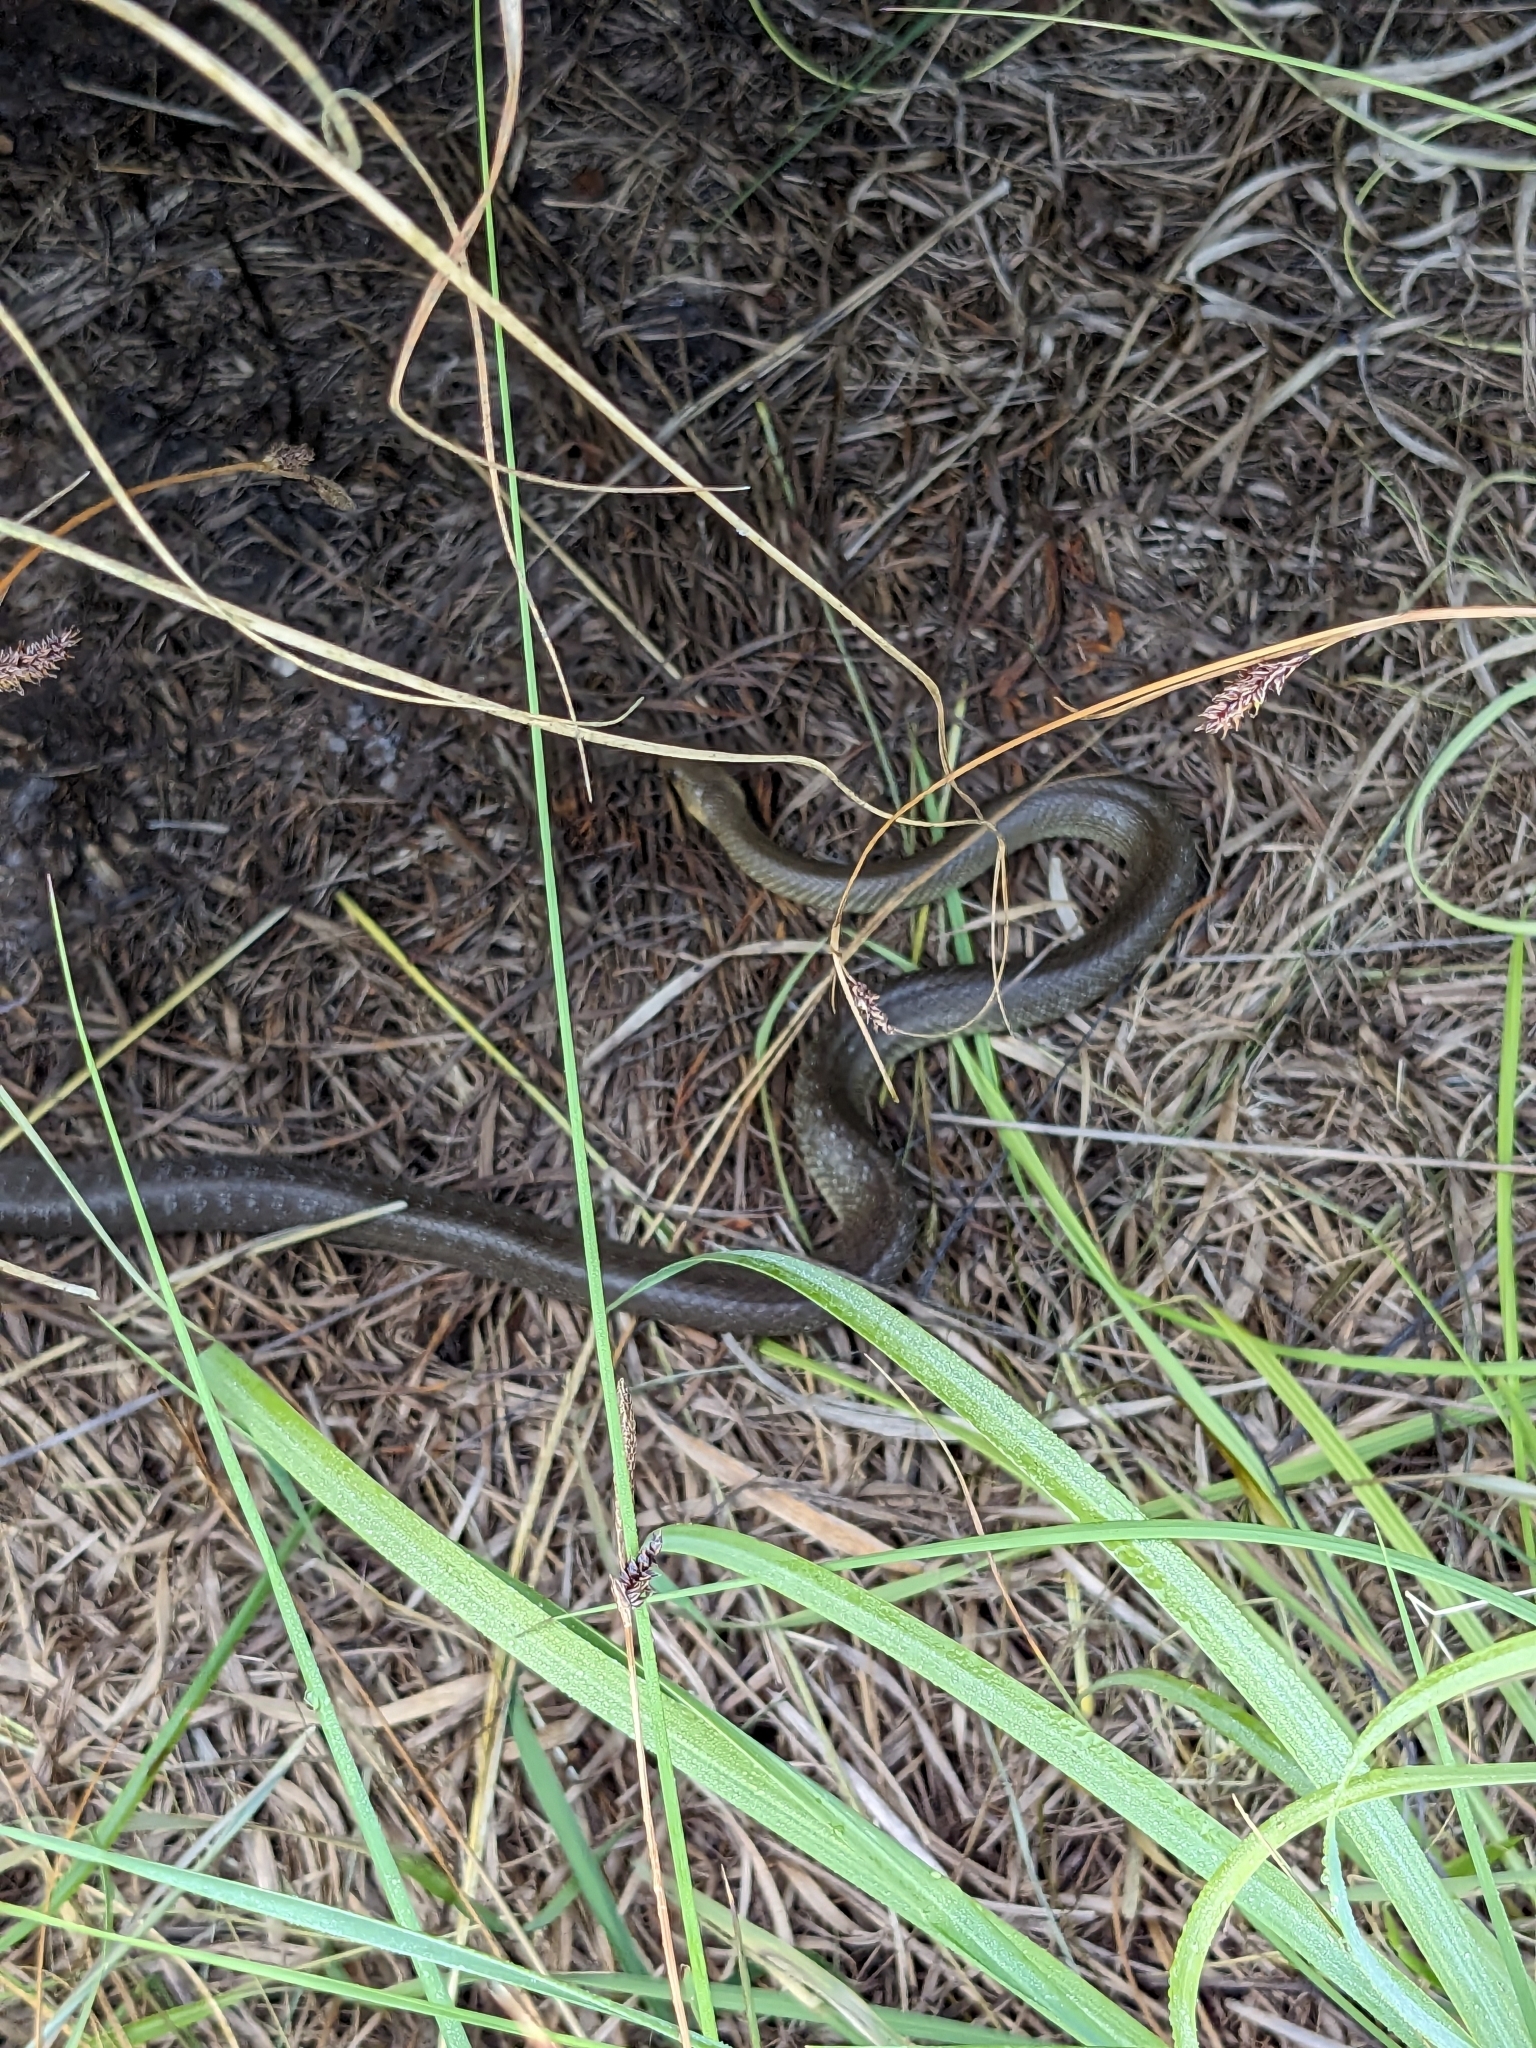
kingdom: Animalia
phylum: Chordata
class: Squamata
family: Colubridae
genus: Zamenis
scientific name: Zamenis longissimus
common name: Aesculapean snake
